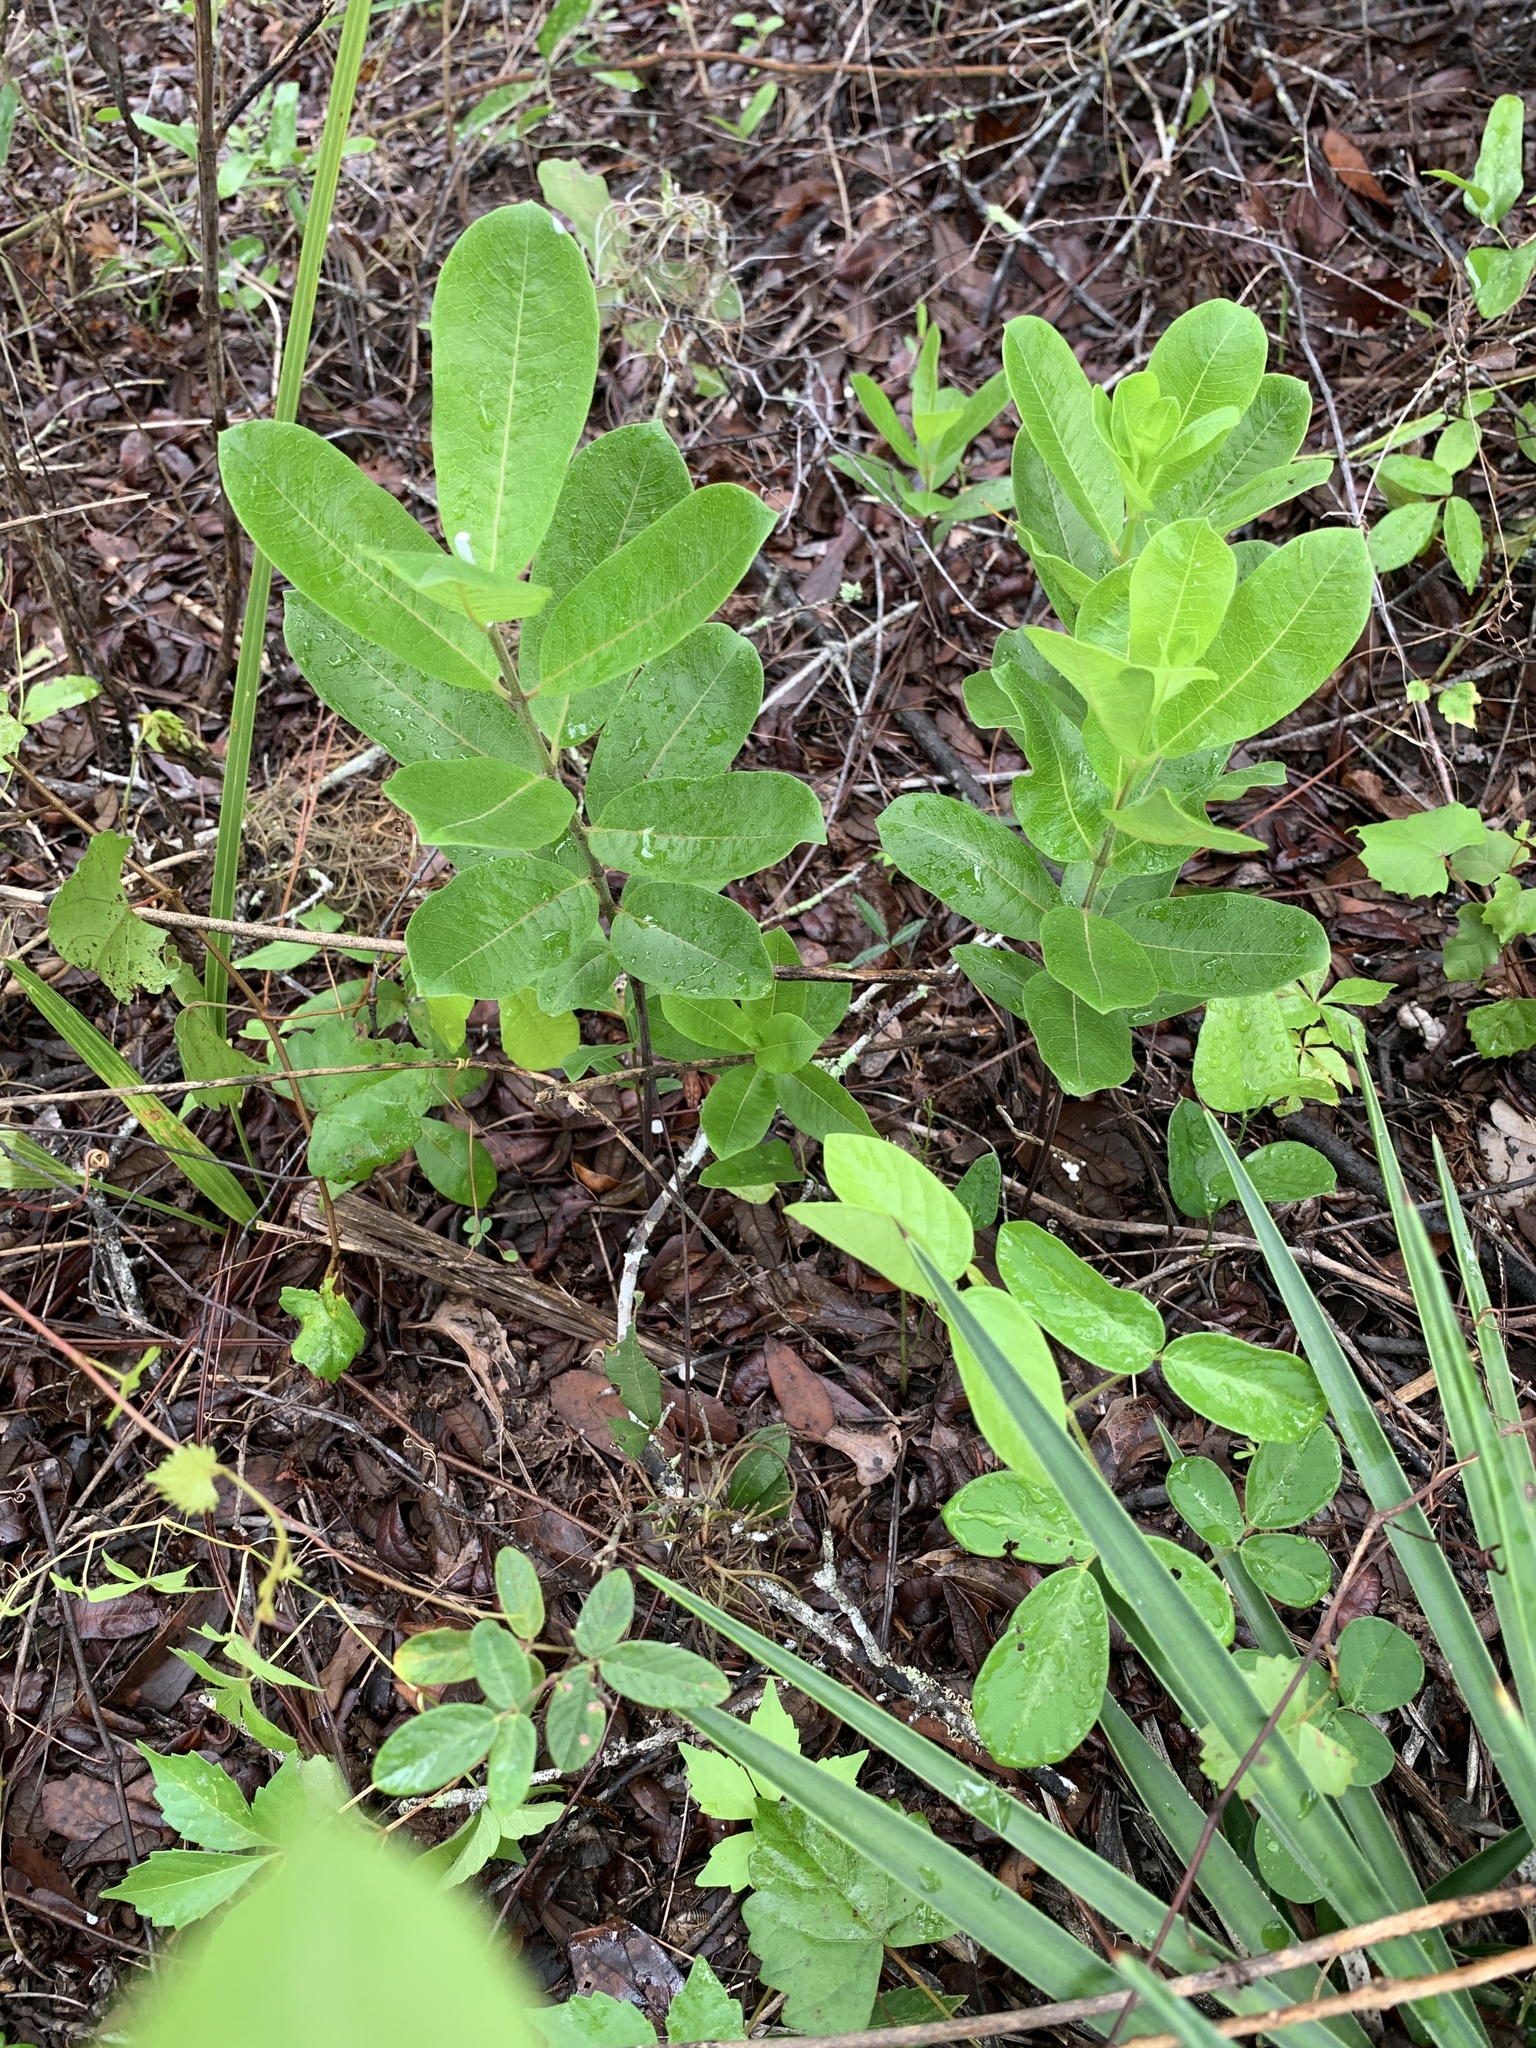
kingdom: Plantae
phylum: Tracheophyta
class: Magnoliopsida
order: Gentianales
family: Apocynaceae
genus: Asclepias
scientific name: Asclepias tomentosa
